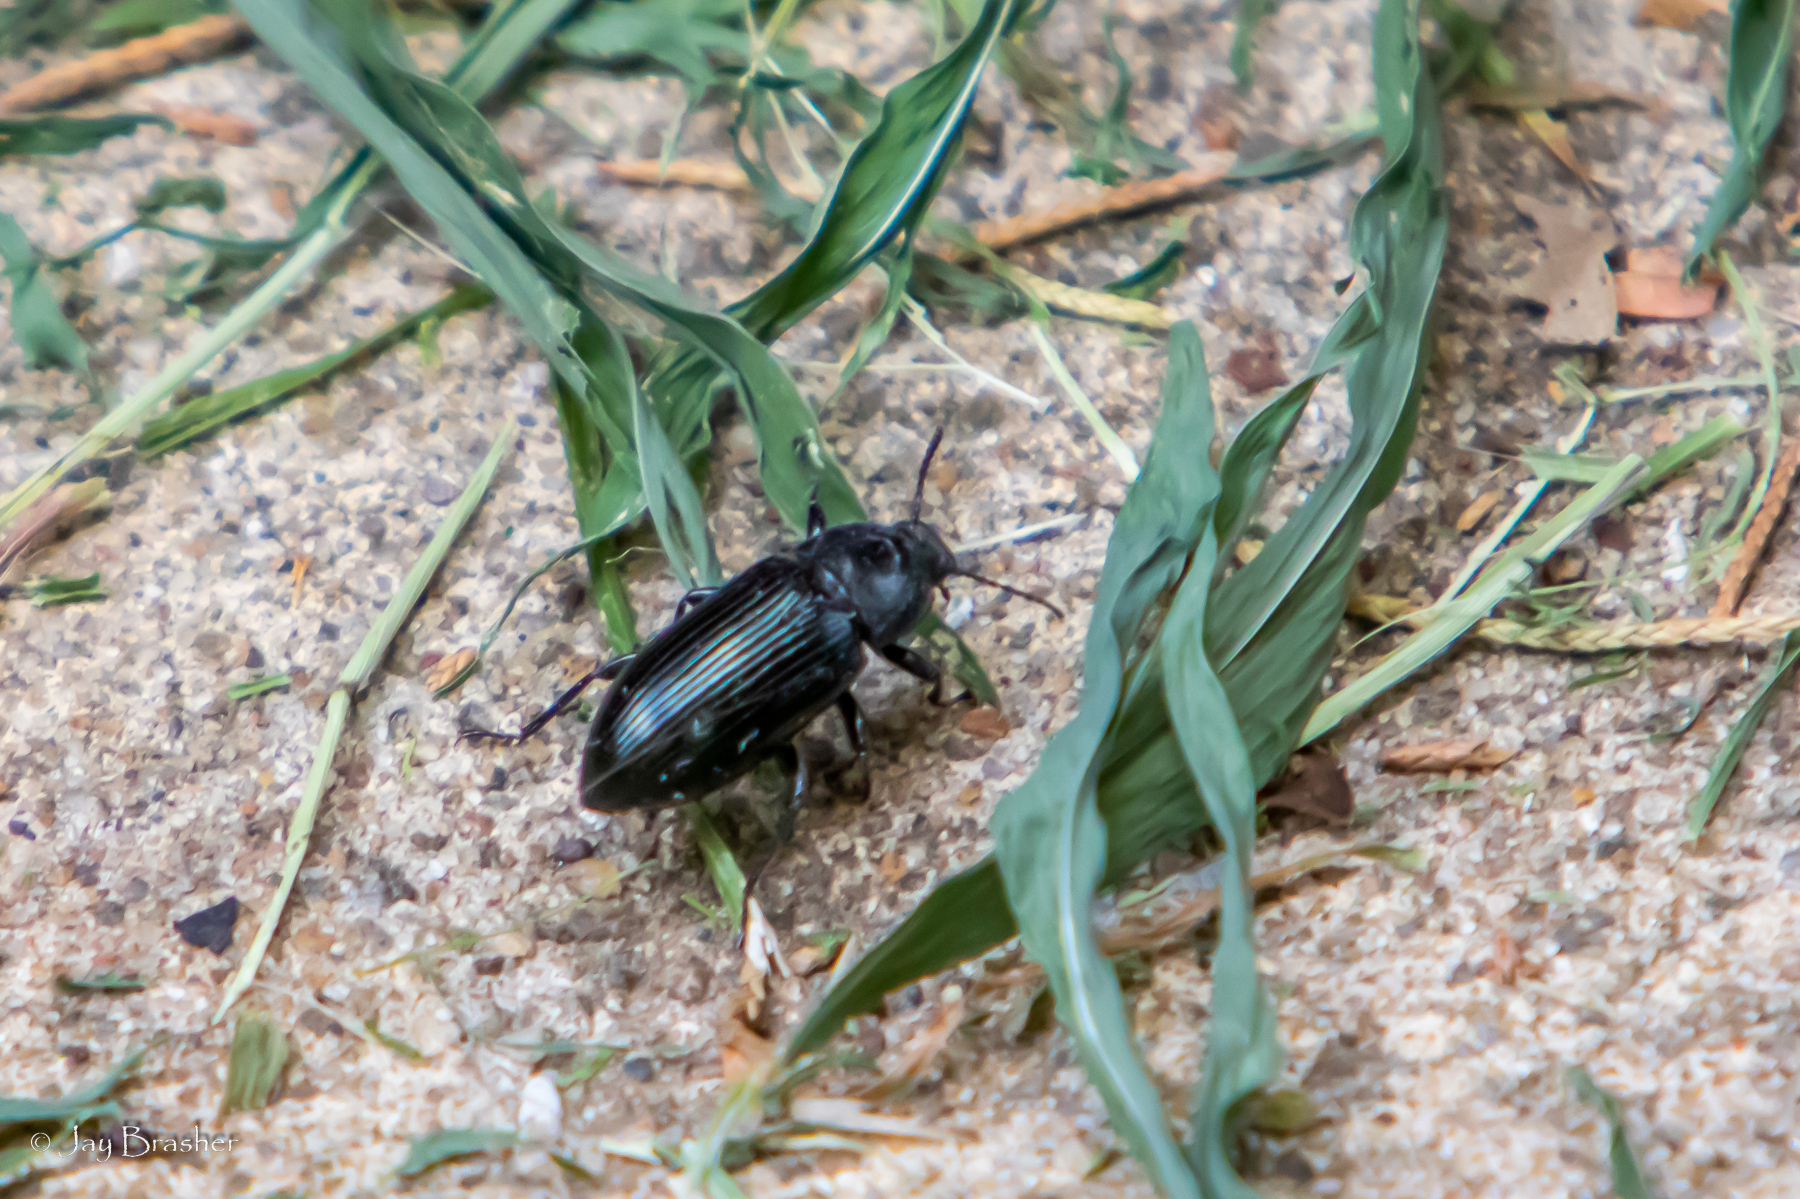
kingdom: Animalia
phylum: Arthropoda
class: Insecta
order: Coleoptera
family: Tenebrionidae
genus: Centronopus
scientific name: Centronopus calcaratus
